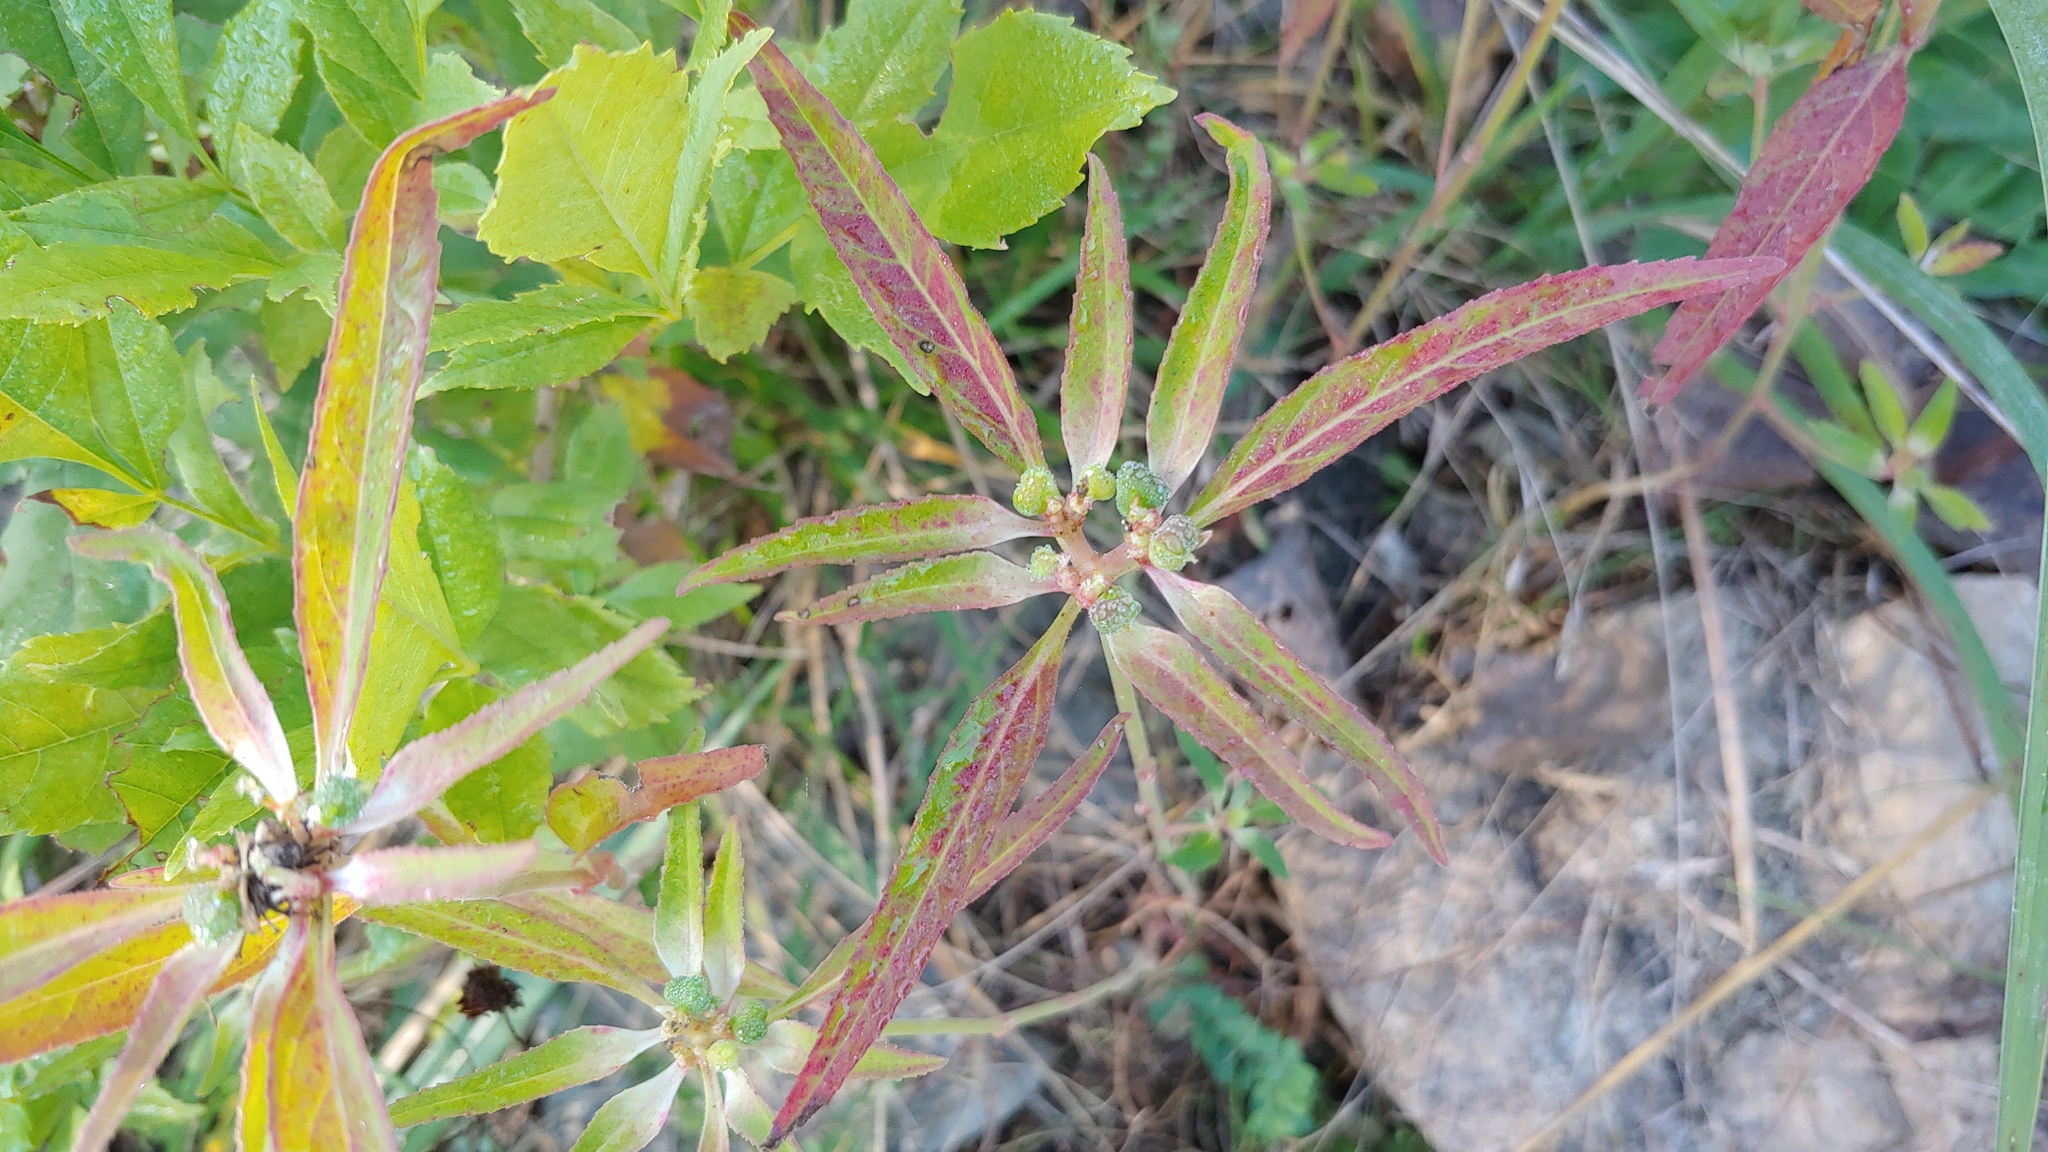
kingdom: Plantae
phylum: Tracheophyta
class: Magnoliopsida
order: Malpighiales
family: Euphorbiaceae
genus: Euphorbia
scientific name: Euphorbia davidii
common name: David's spurge
